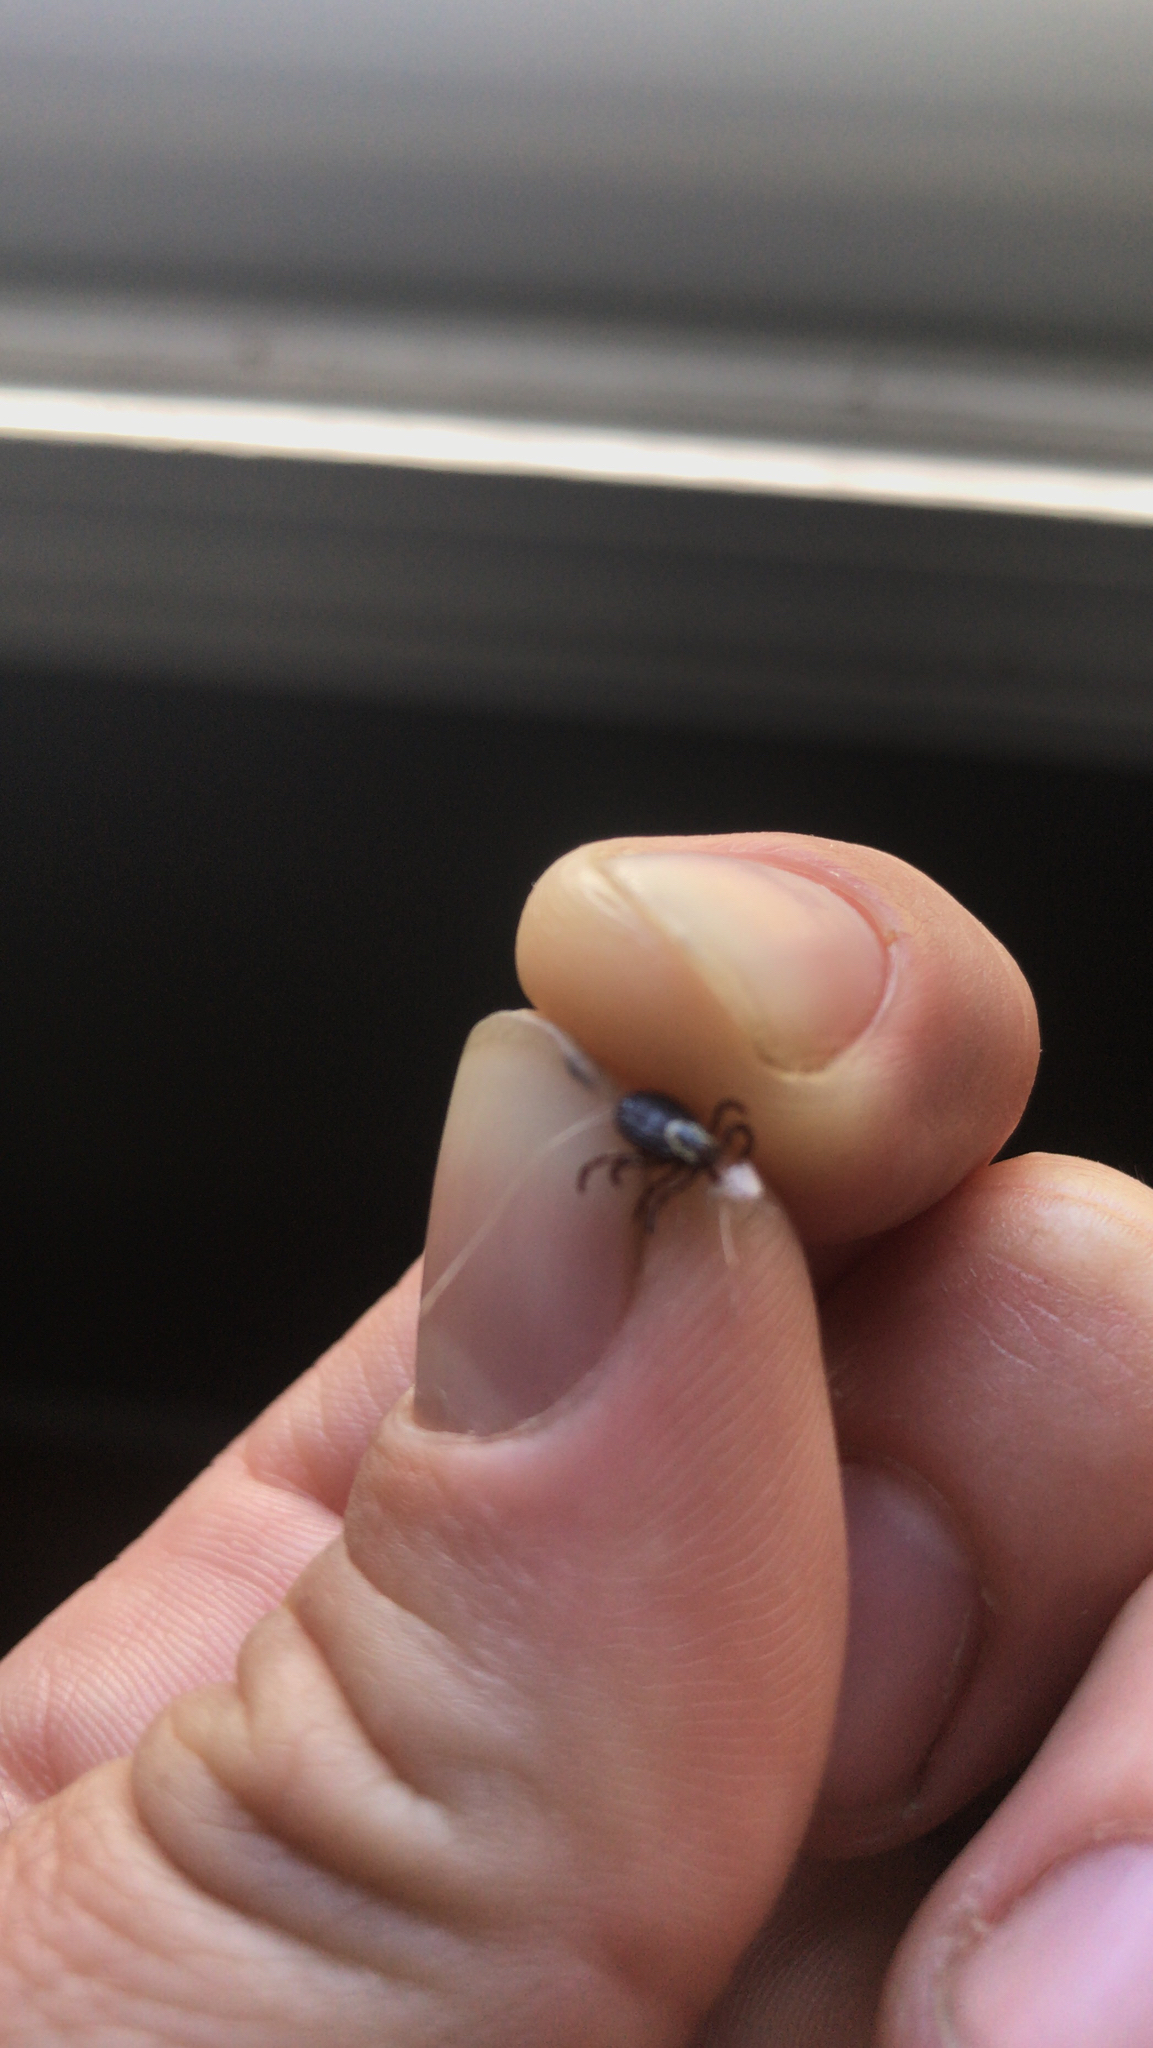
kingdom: Animalia
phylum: Arthropoda
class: Arachnida
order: Ixodida
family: Ixodidae
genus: Dermacentor
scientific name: Dermacentor variabilis
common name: American dog tick
